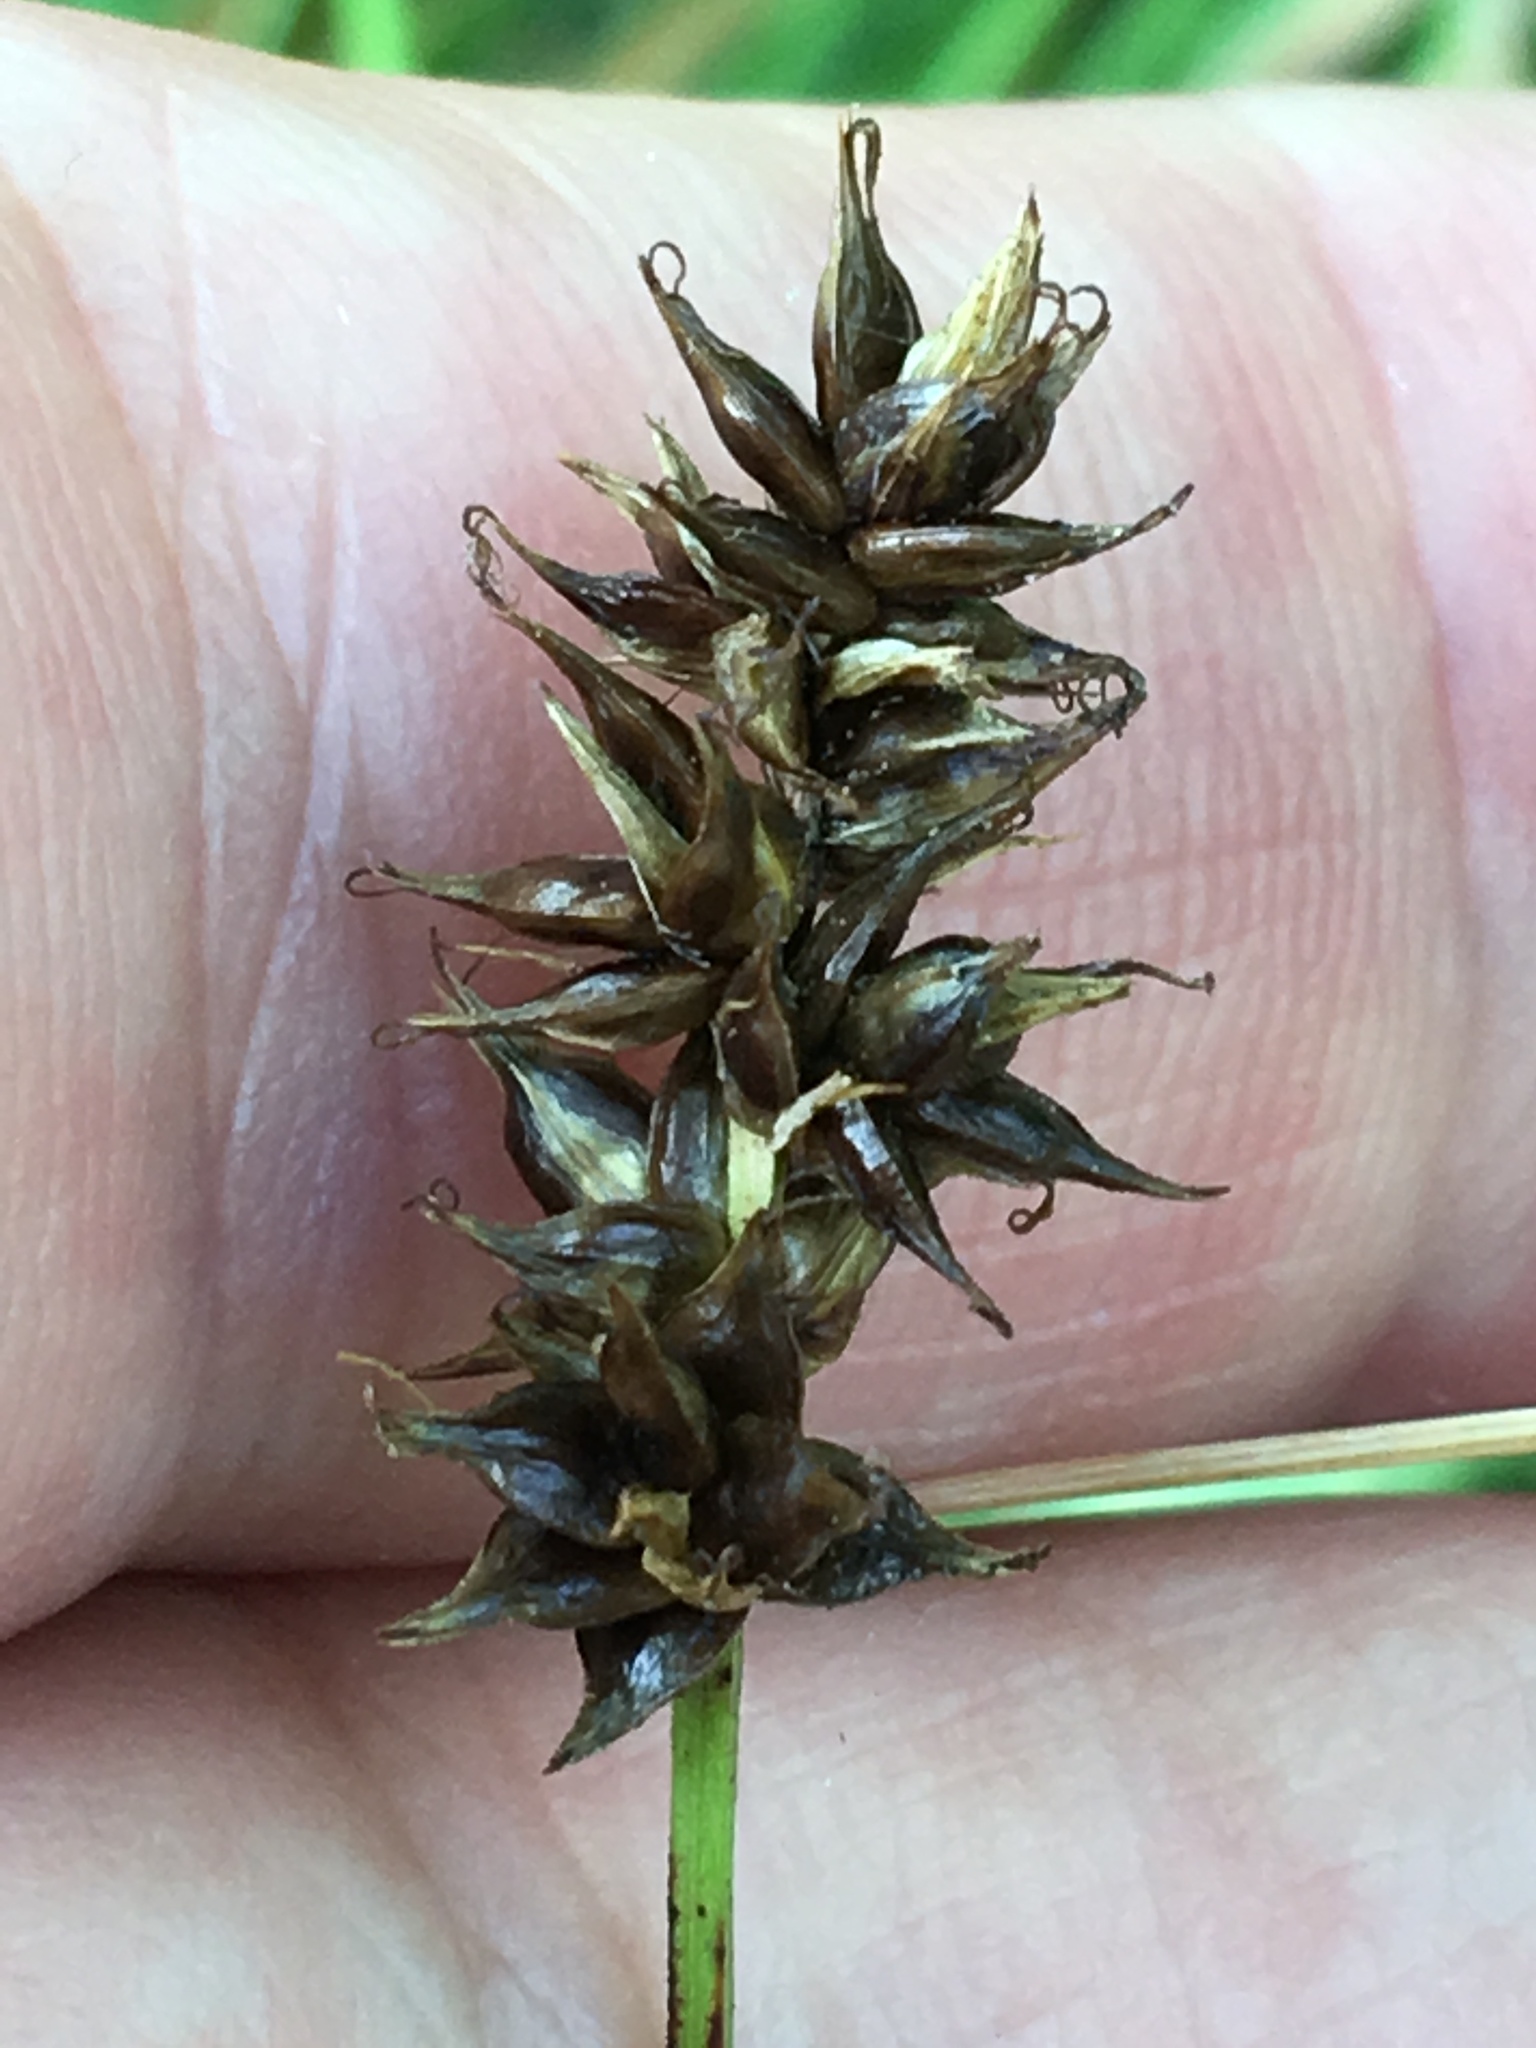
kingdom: Plantae
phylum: Tracheophyta
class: Liliopsida
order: Poales
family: Cyperaceae
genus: Carex
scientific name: Carex spicata
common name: Spiked sedge
